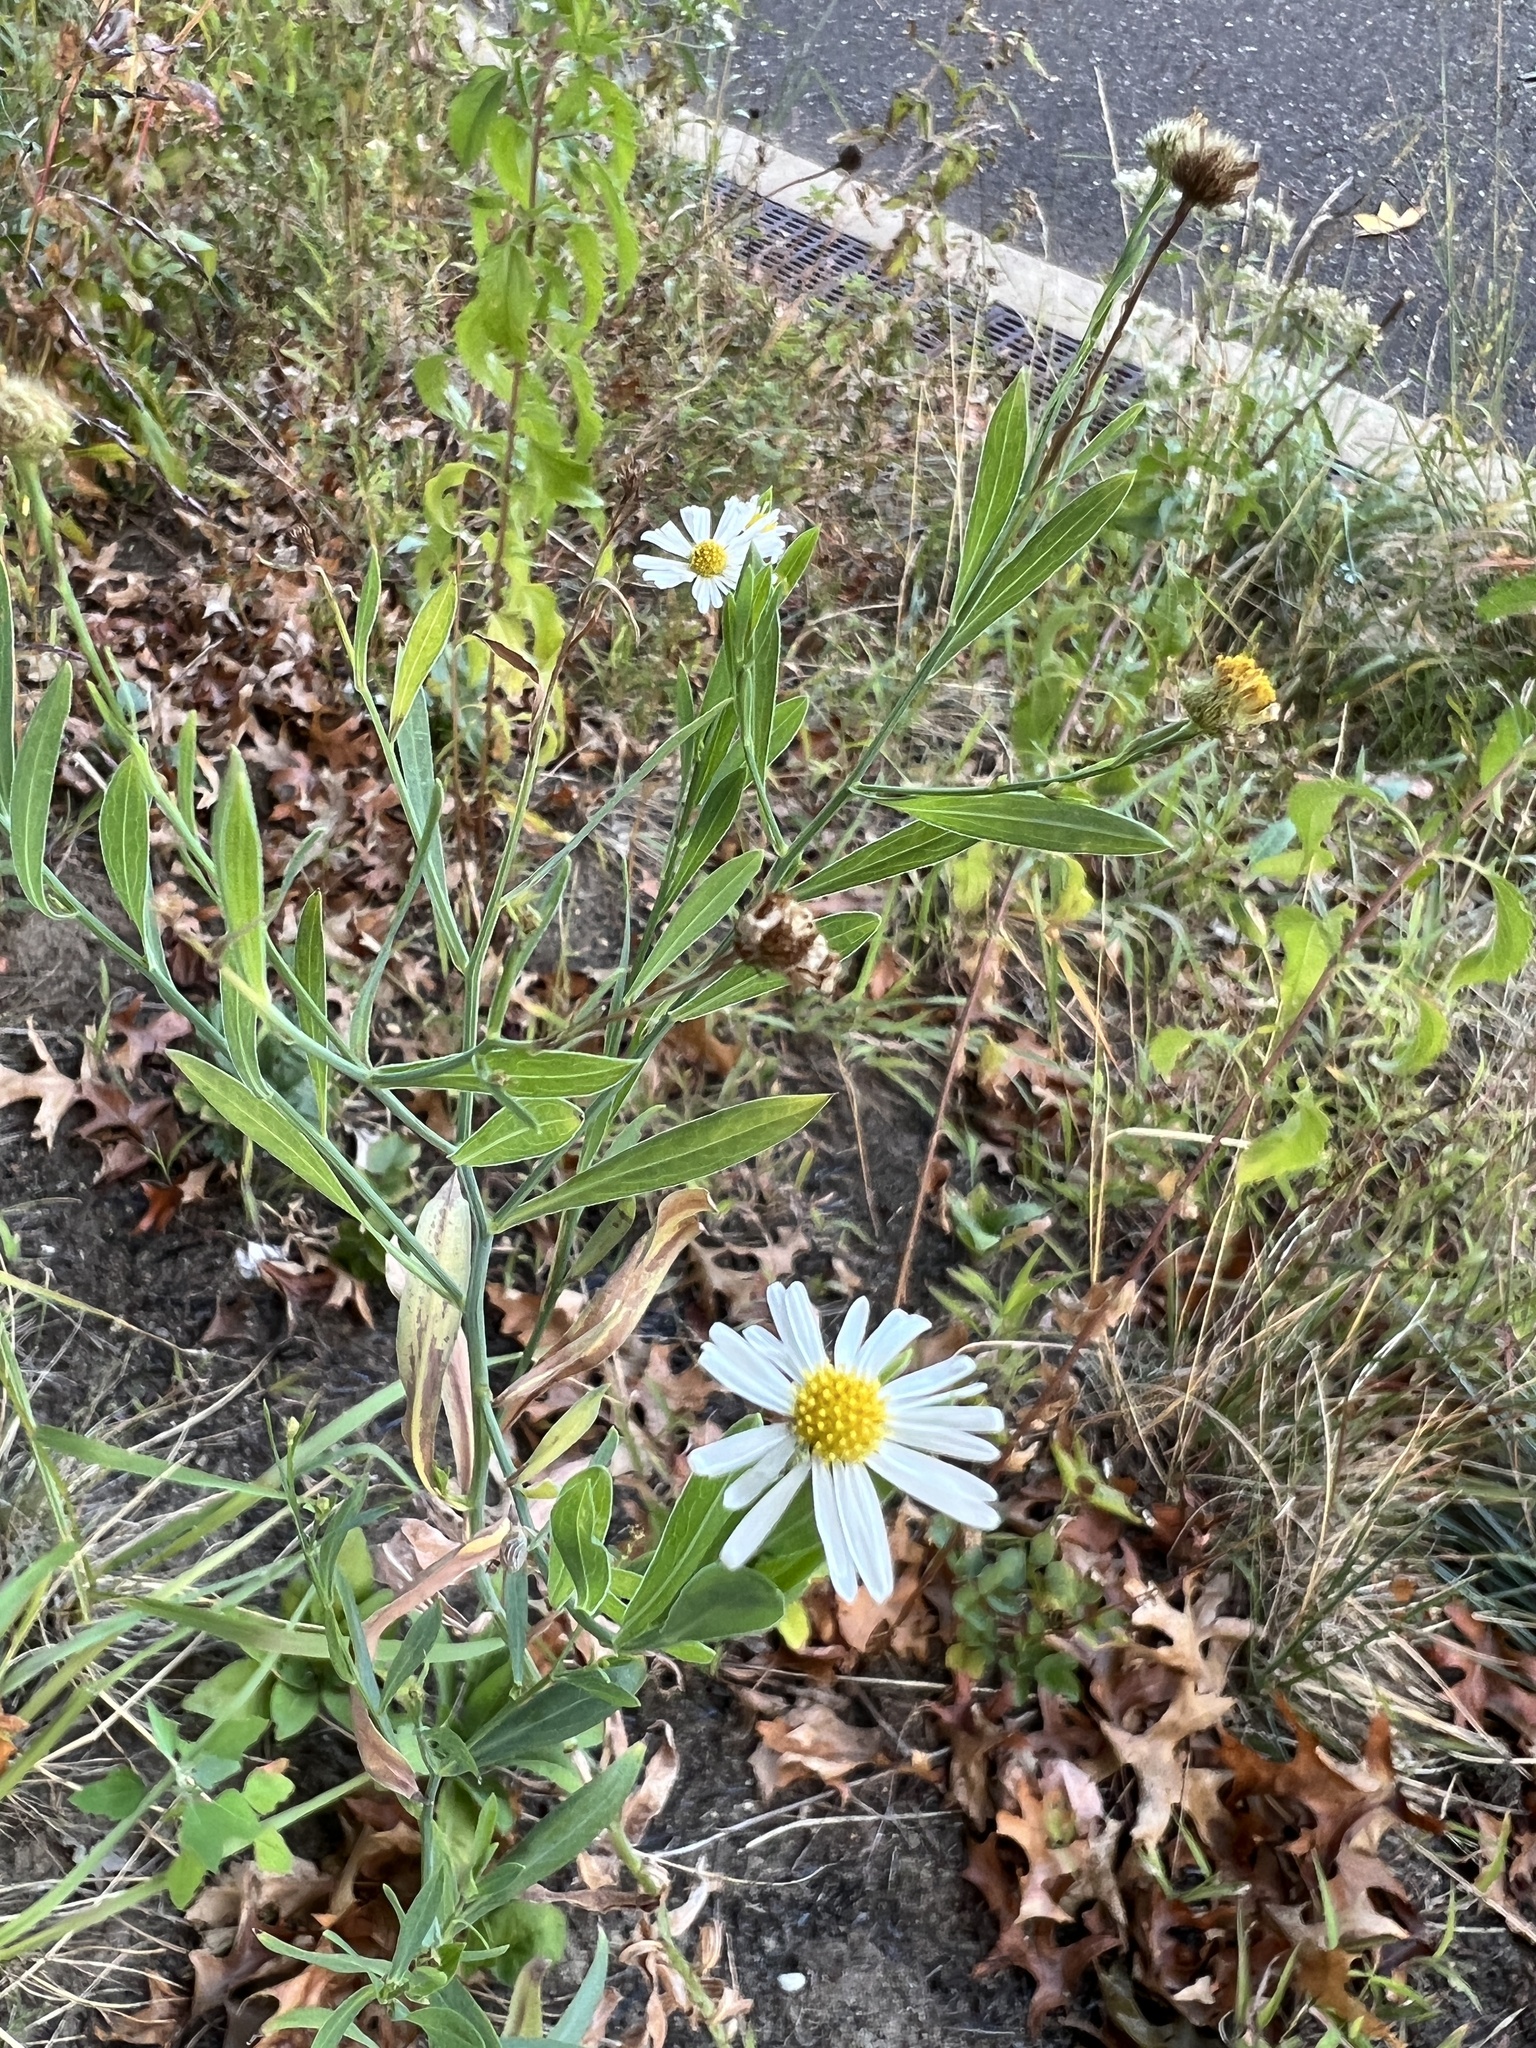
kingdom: Plantae
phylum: Tracheophyta
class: Magnoliopsida
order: Asterales
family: Asteraceae
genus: Boltonia
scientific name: Boltonia asteroides
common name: False chamomile
